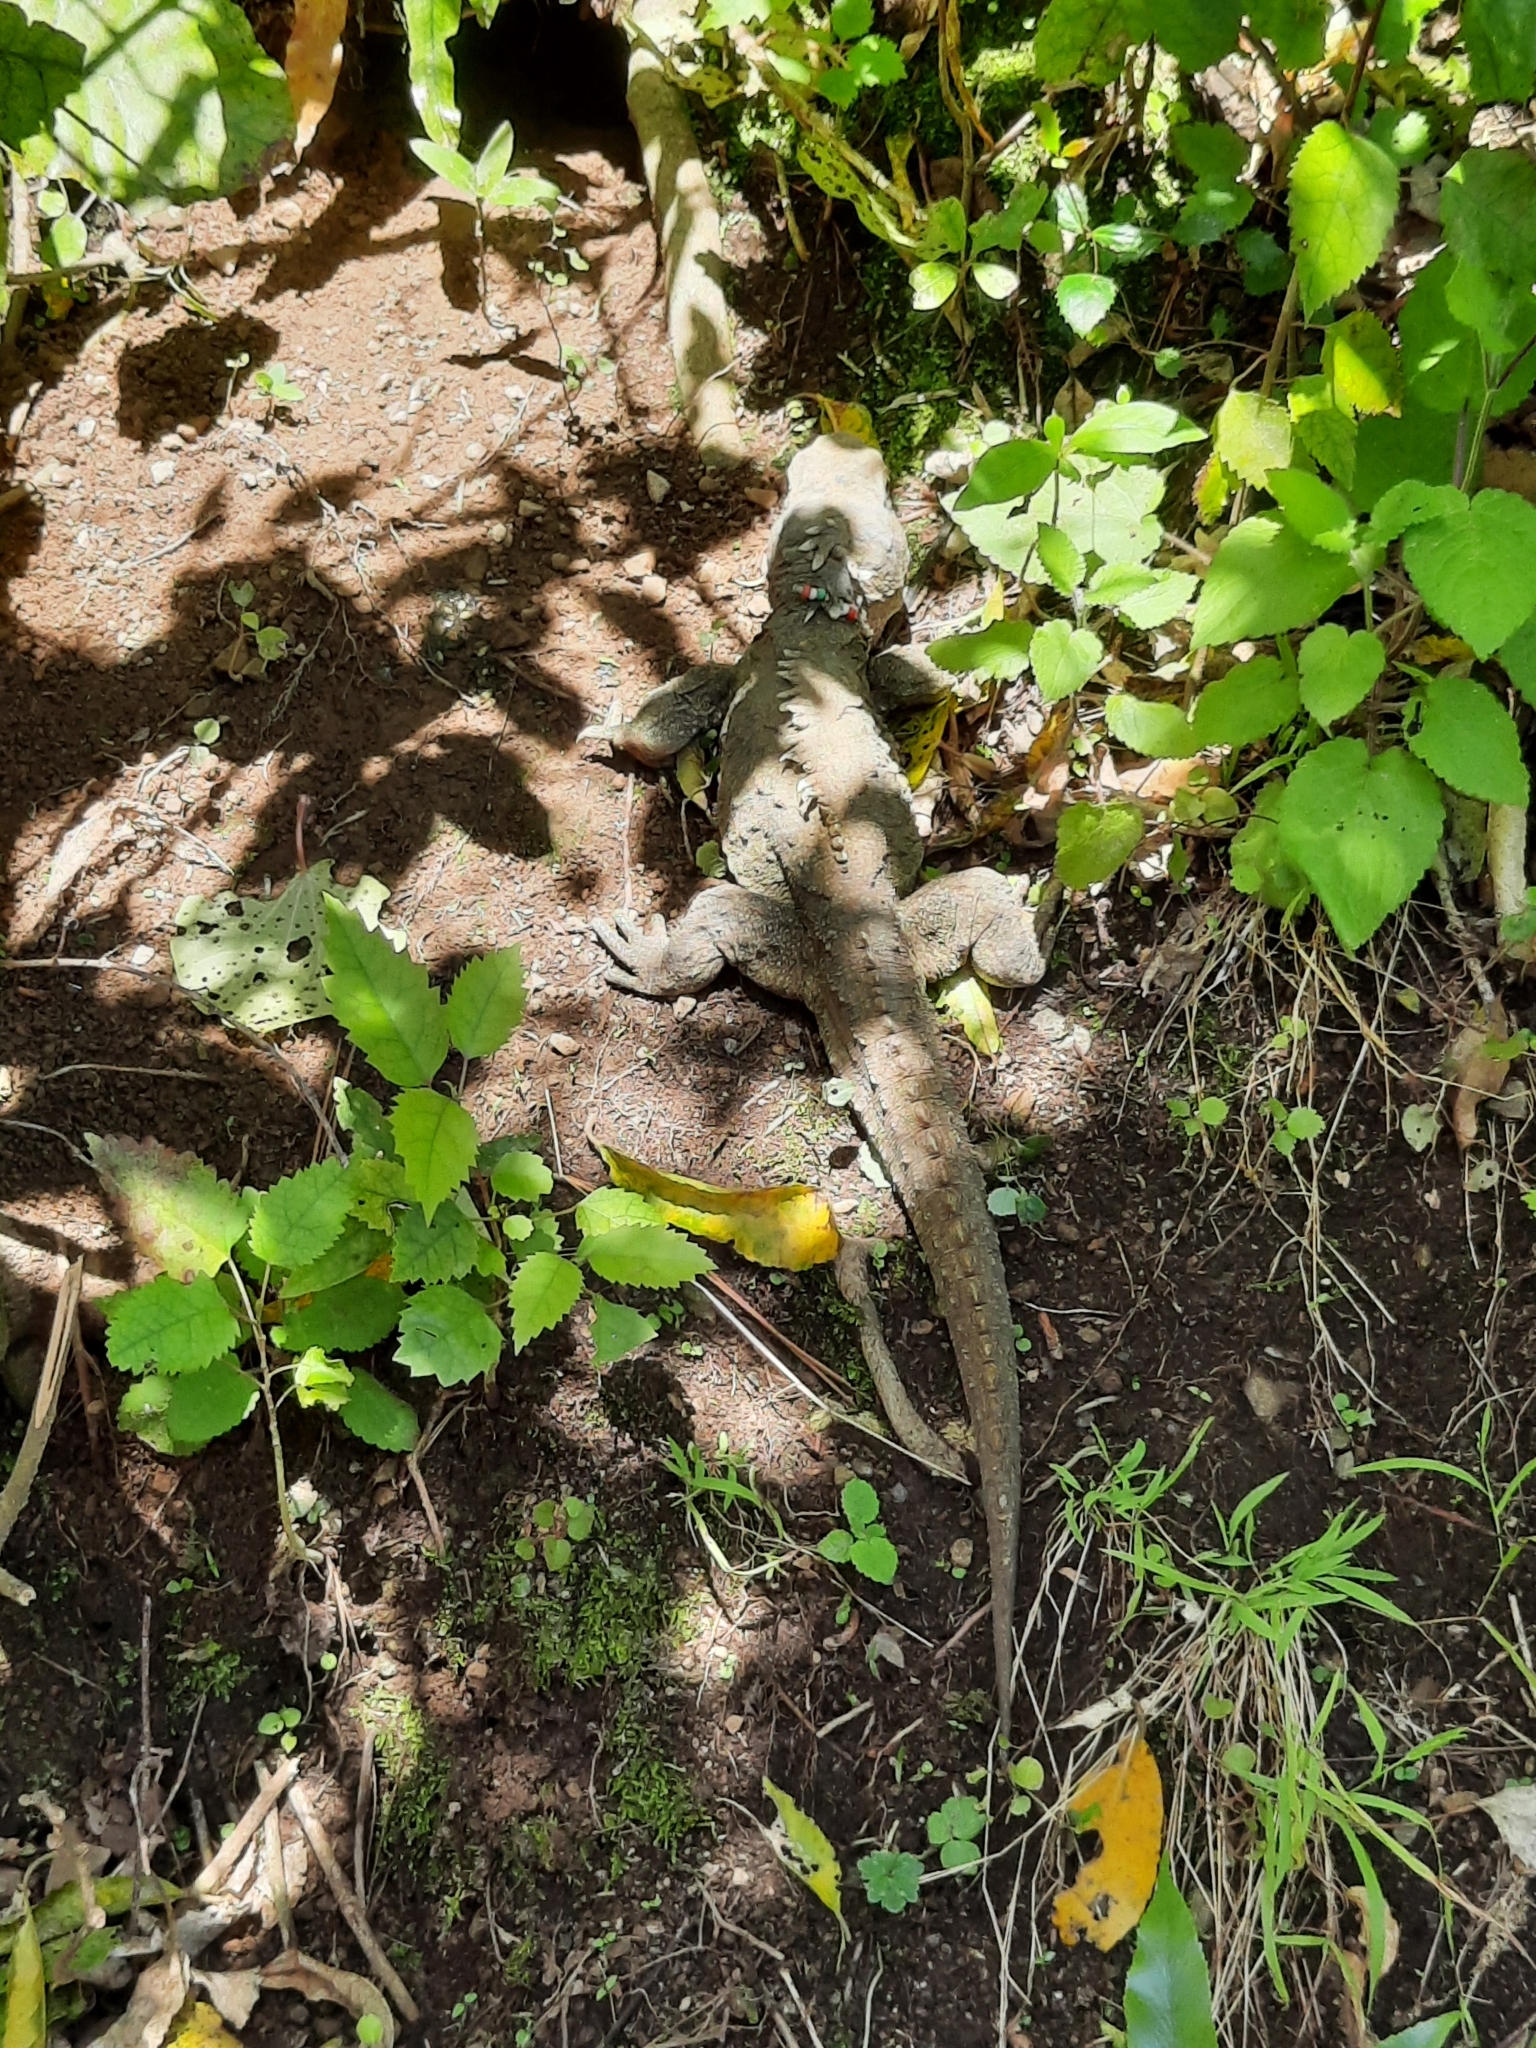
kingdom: Animalia
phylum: Chordata
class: Sphenodontia
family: Sphenodontidae
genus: Sphenodon
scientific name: Sphenodon punctatus
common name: Tuatara
